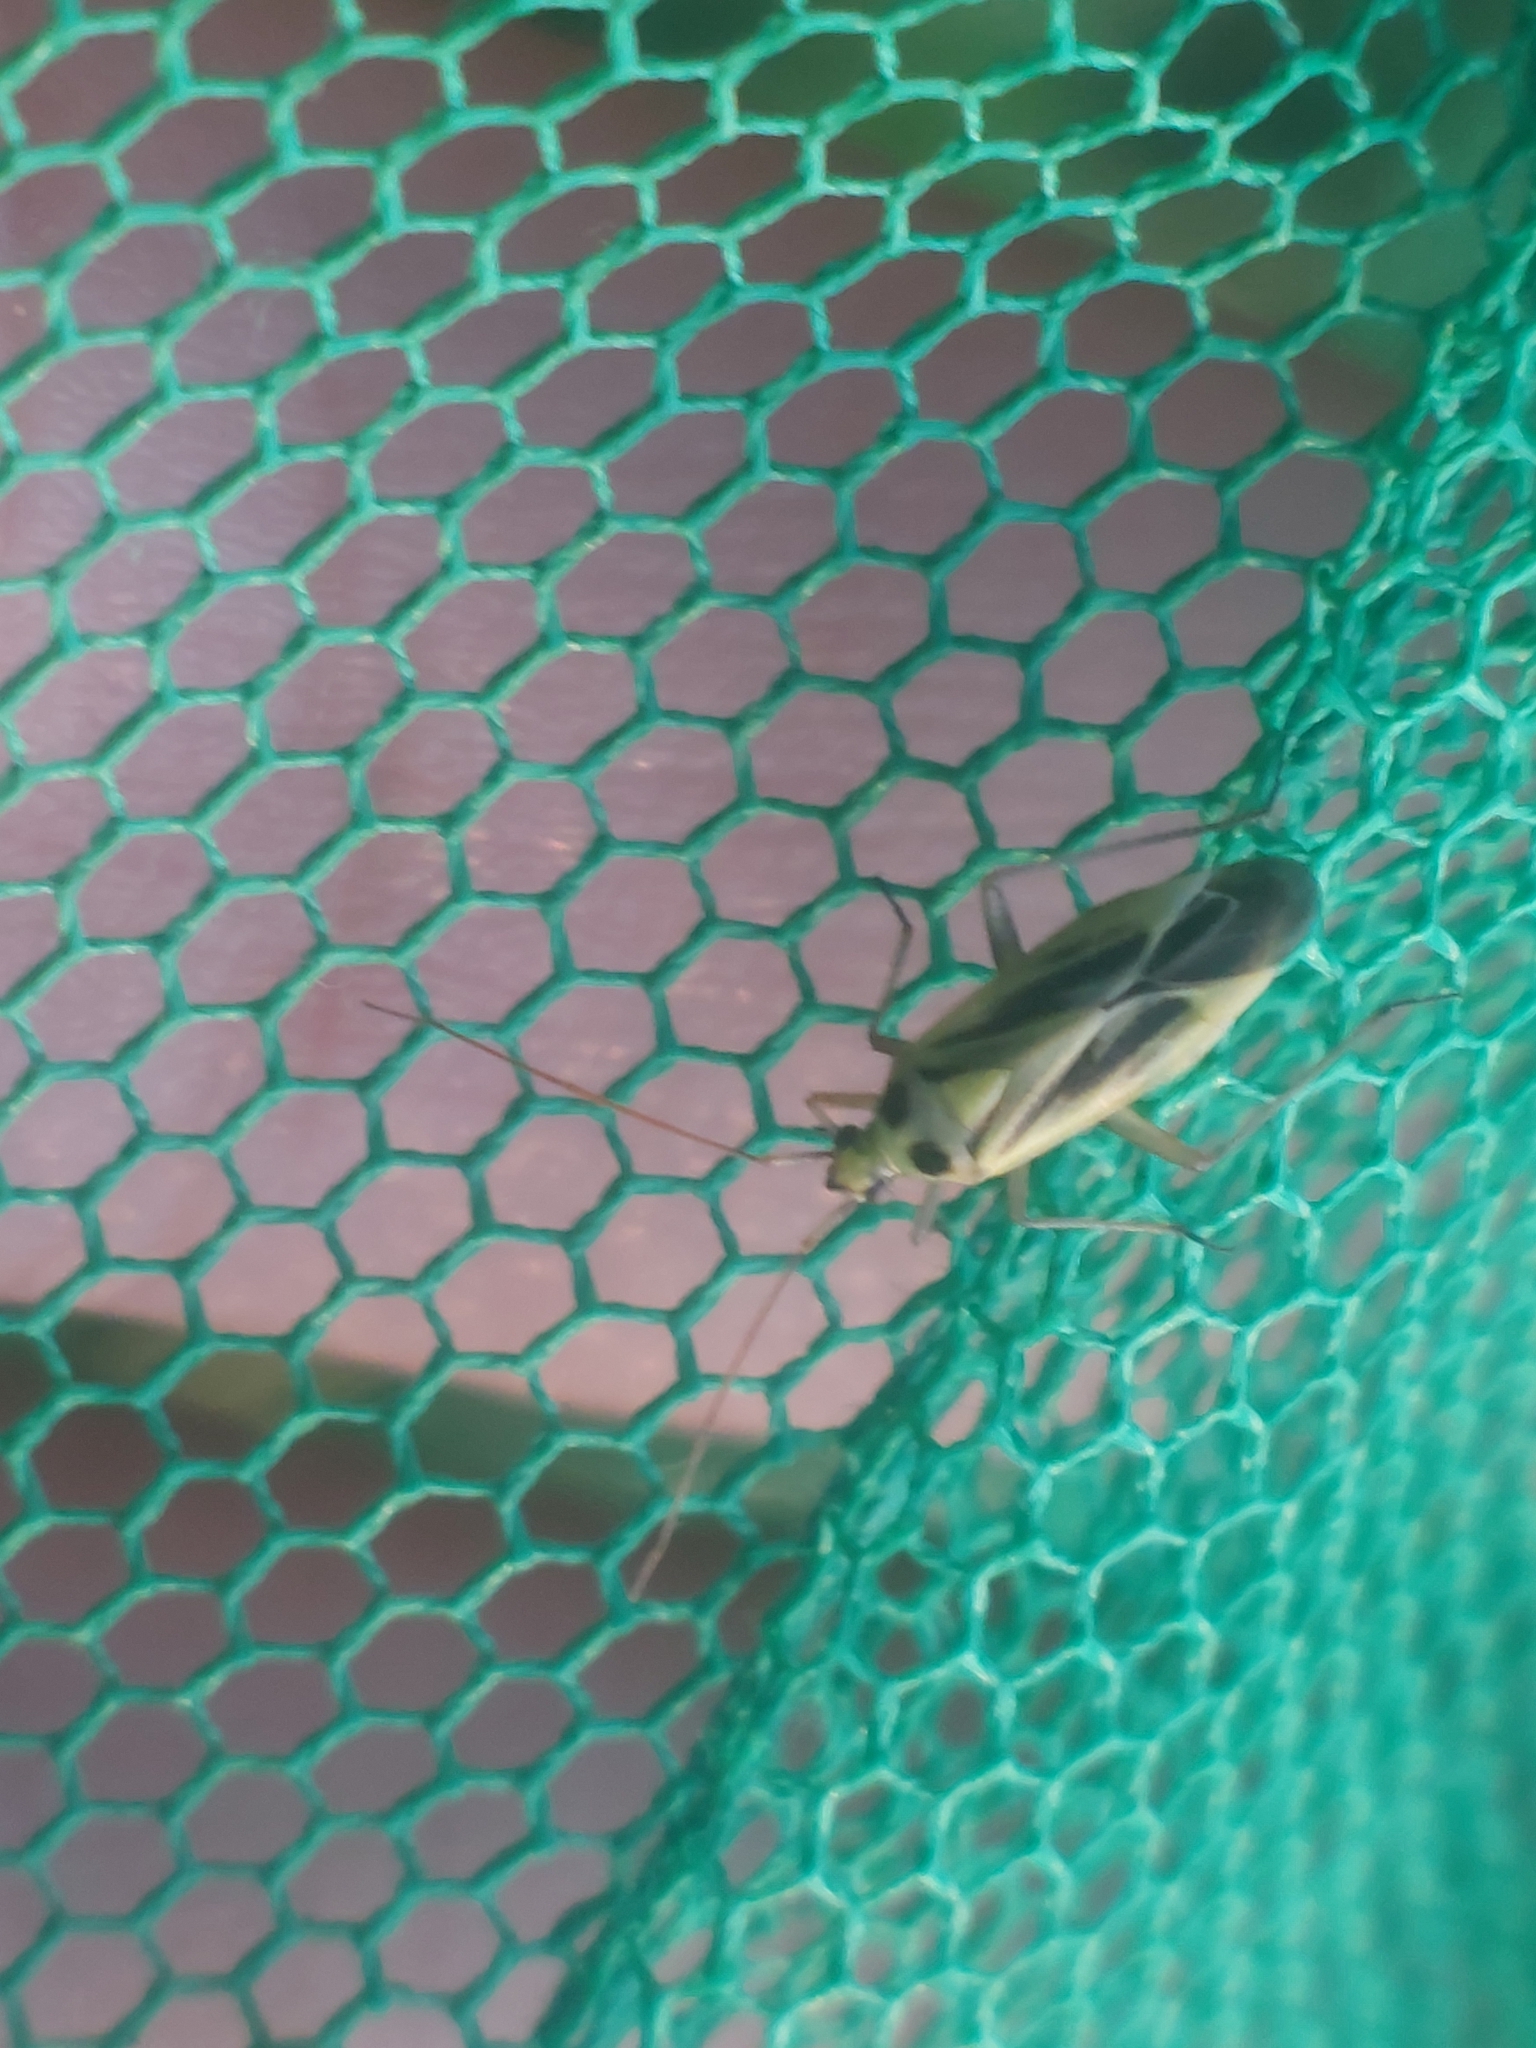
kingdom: Animalia
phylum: Arthropoda
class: Insecta
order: Hemiptera
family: Miridae
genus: Stenotus
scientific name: Stenotus binotatus
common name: Plant bug
